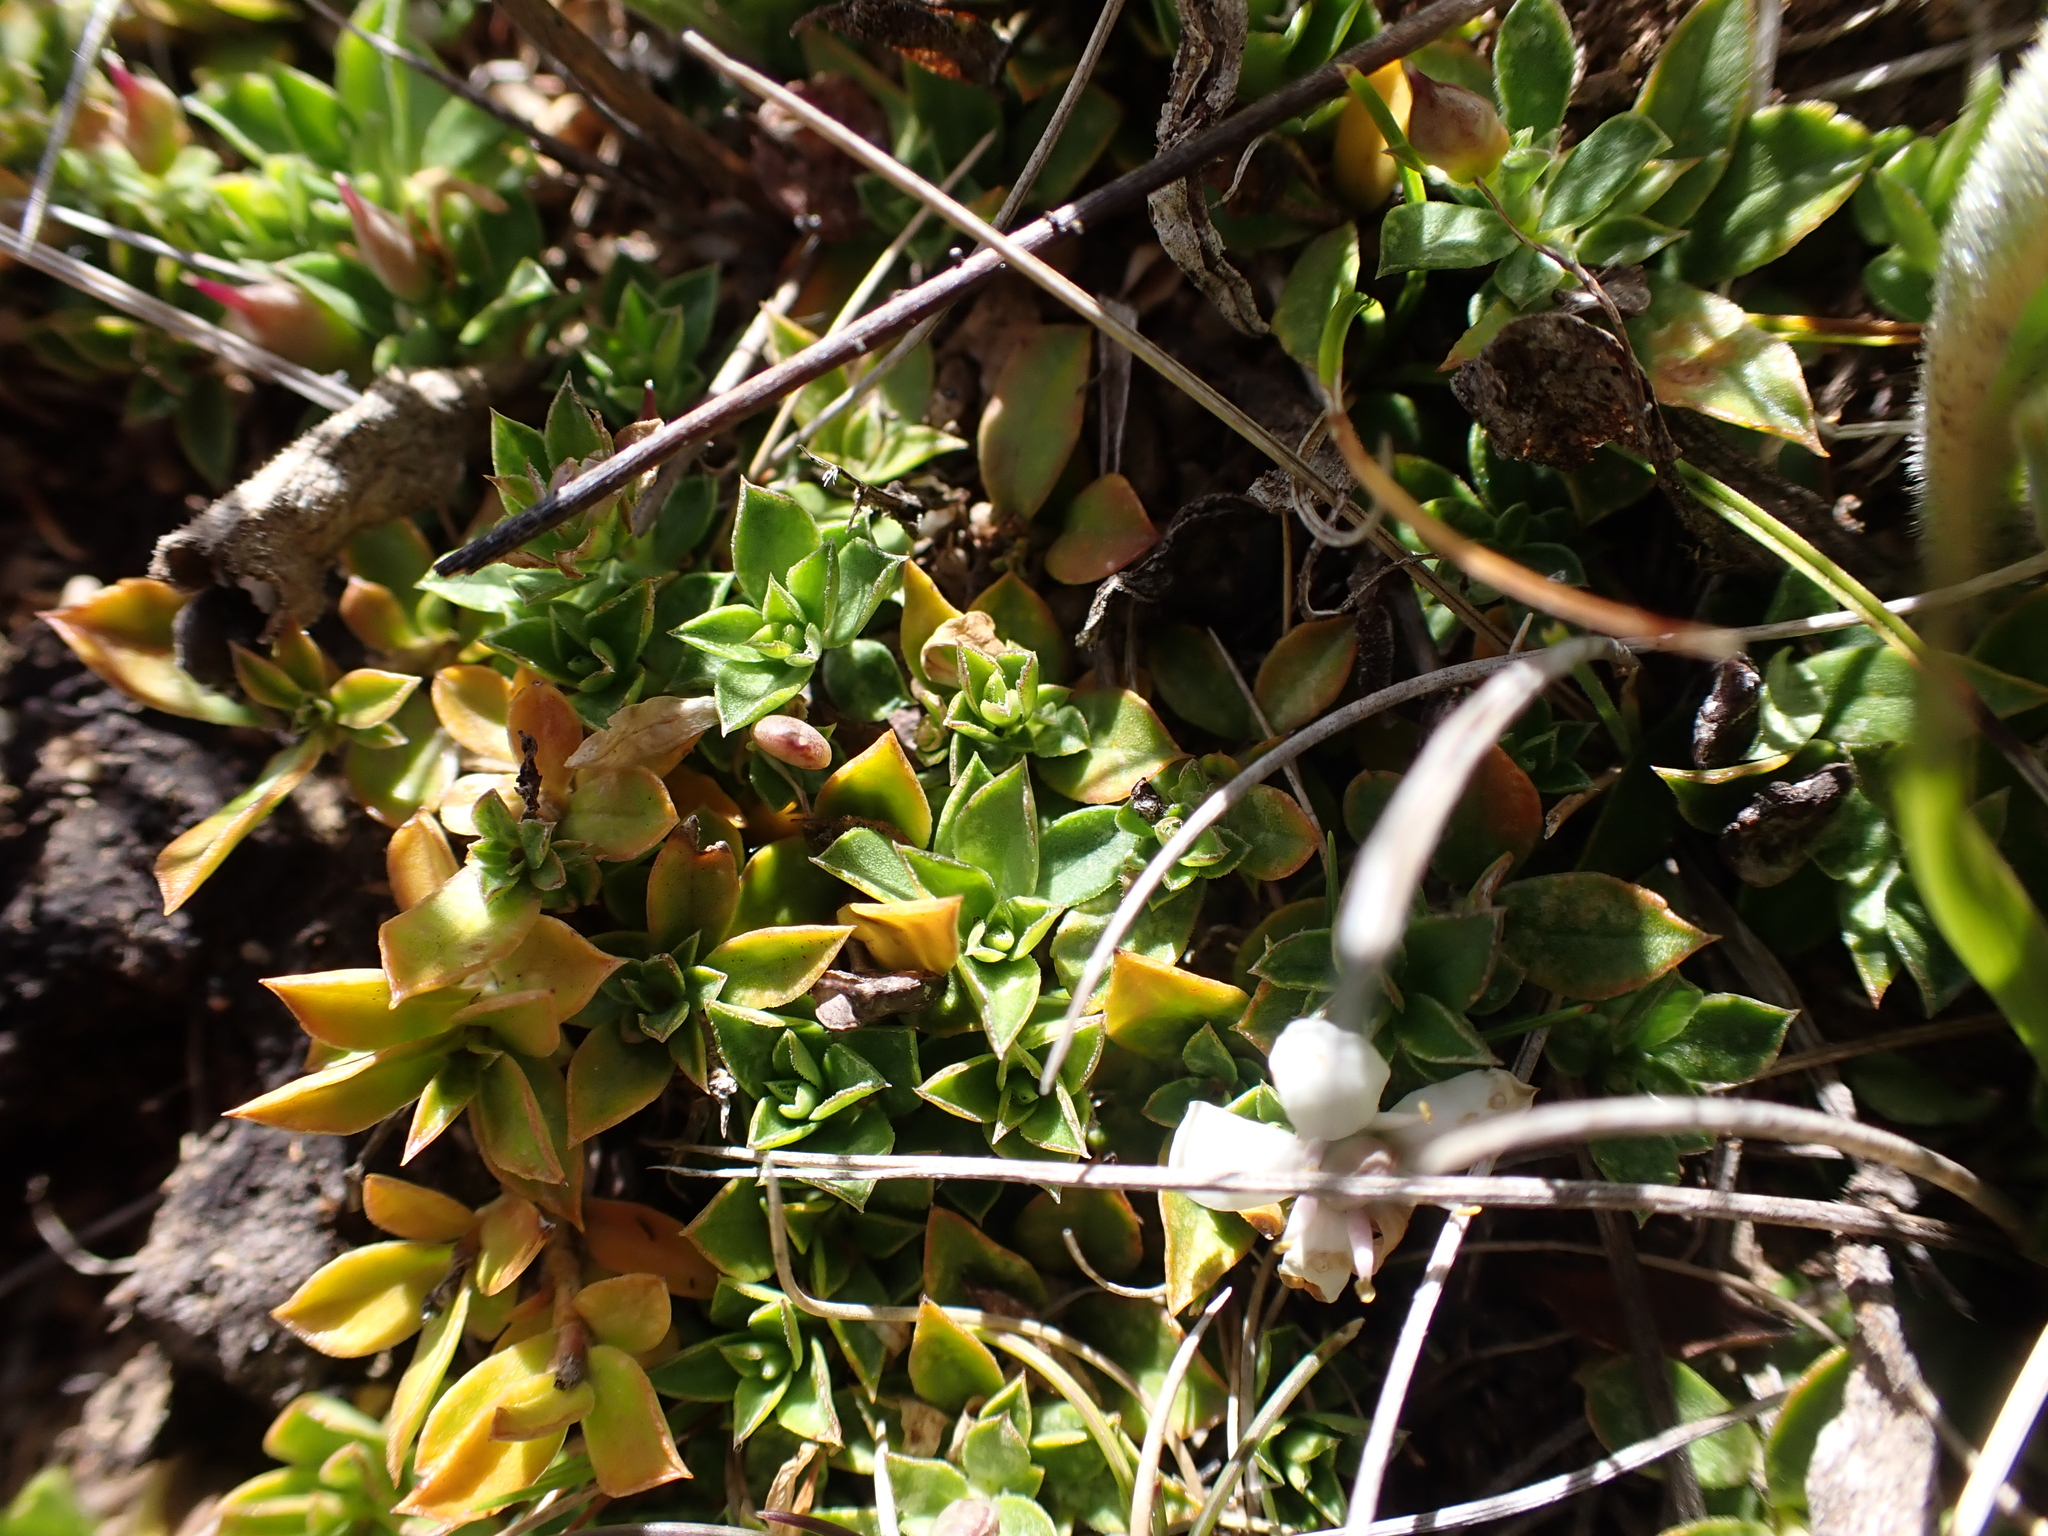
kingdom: Plantae
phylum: Tracheophyta
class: Magnoliopsida
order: Apiales
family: Pittosporaceae
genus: Rhytidosporum
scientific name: Rhytidosporum alpinum
